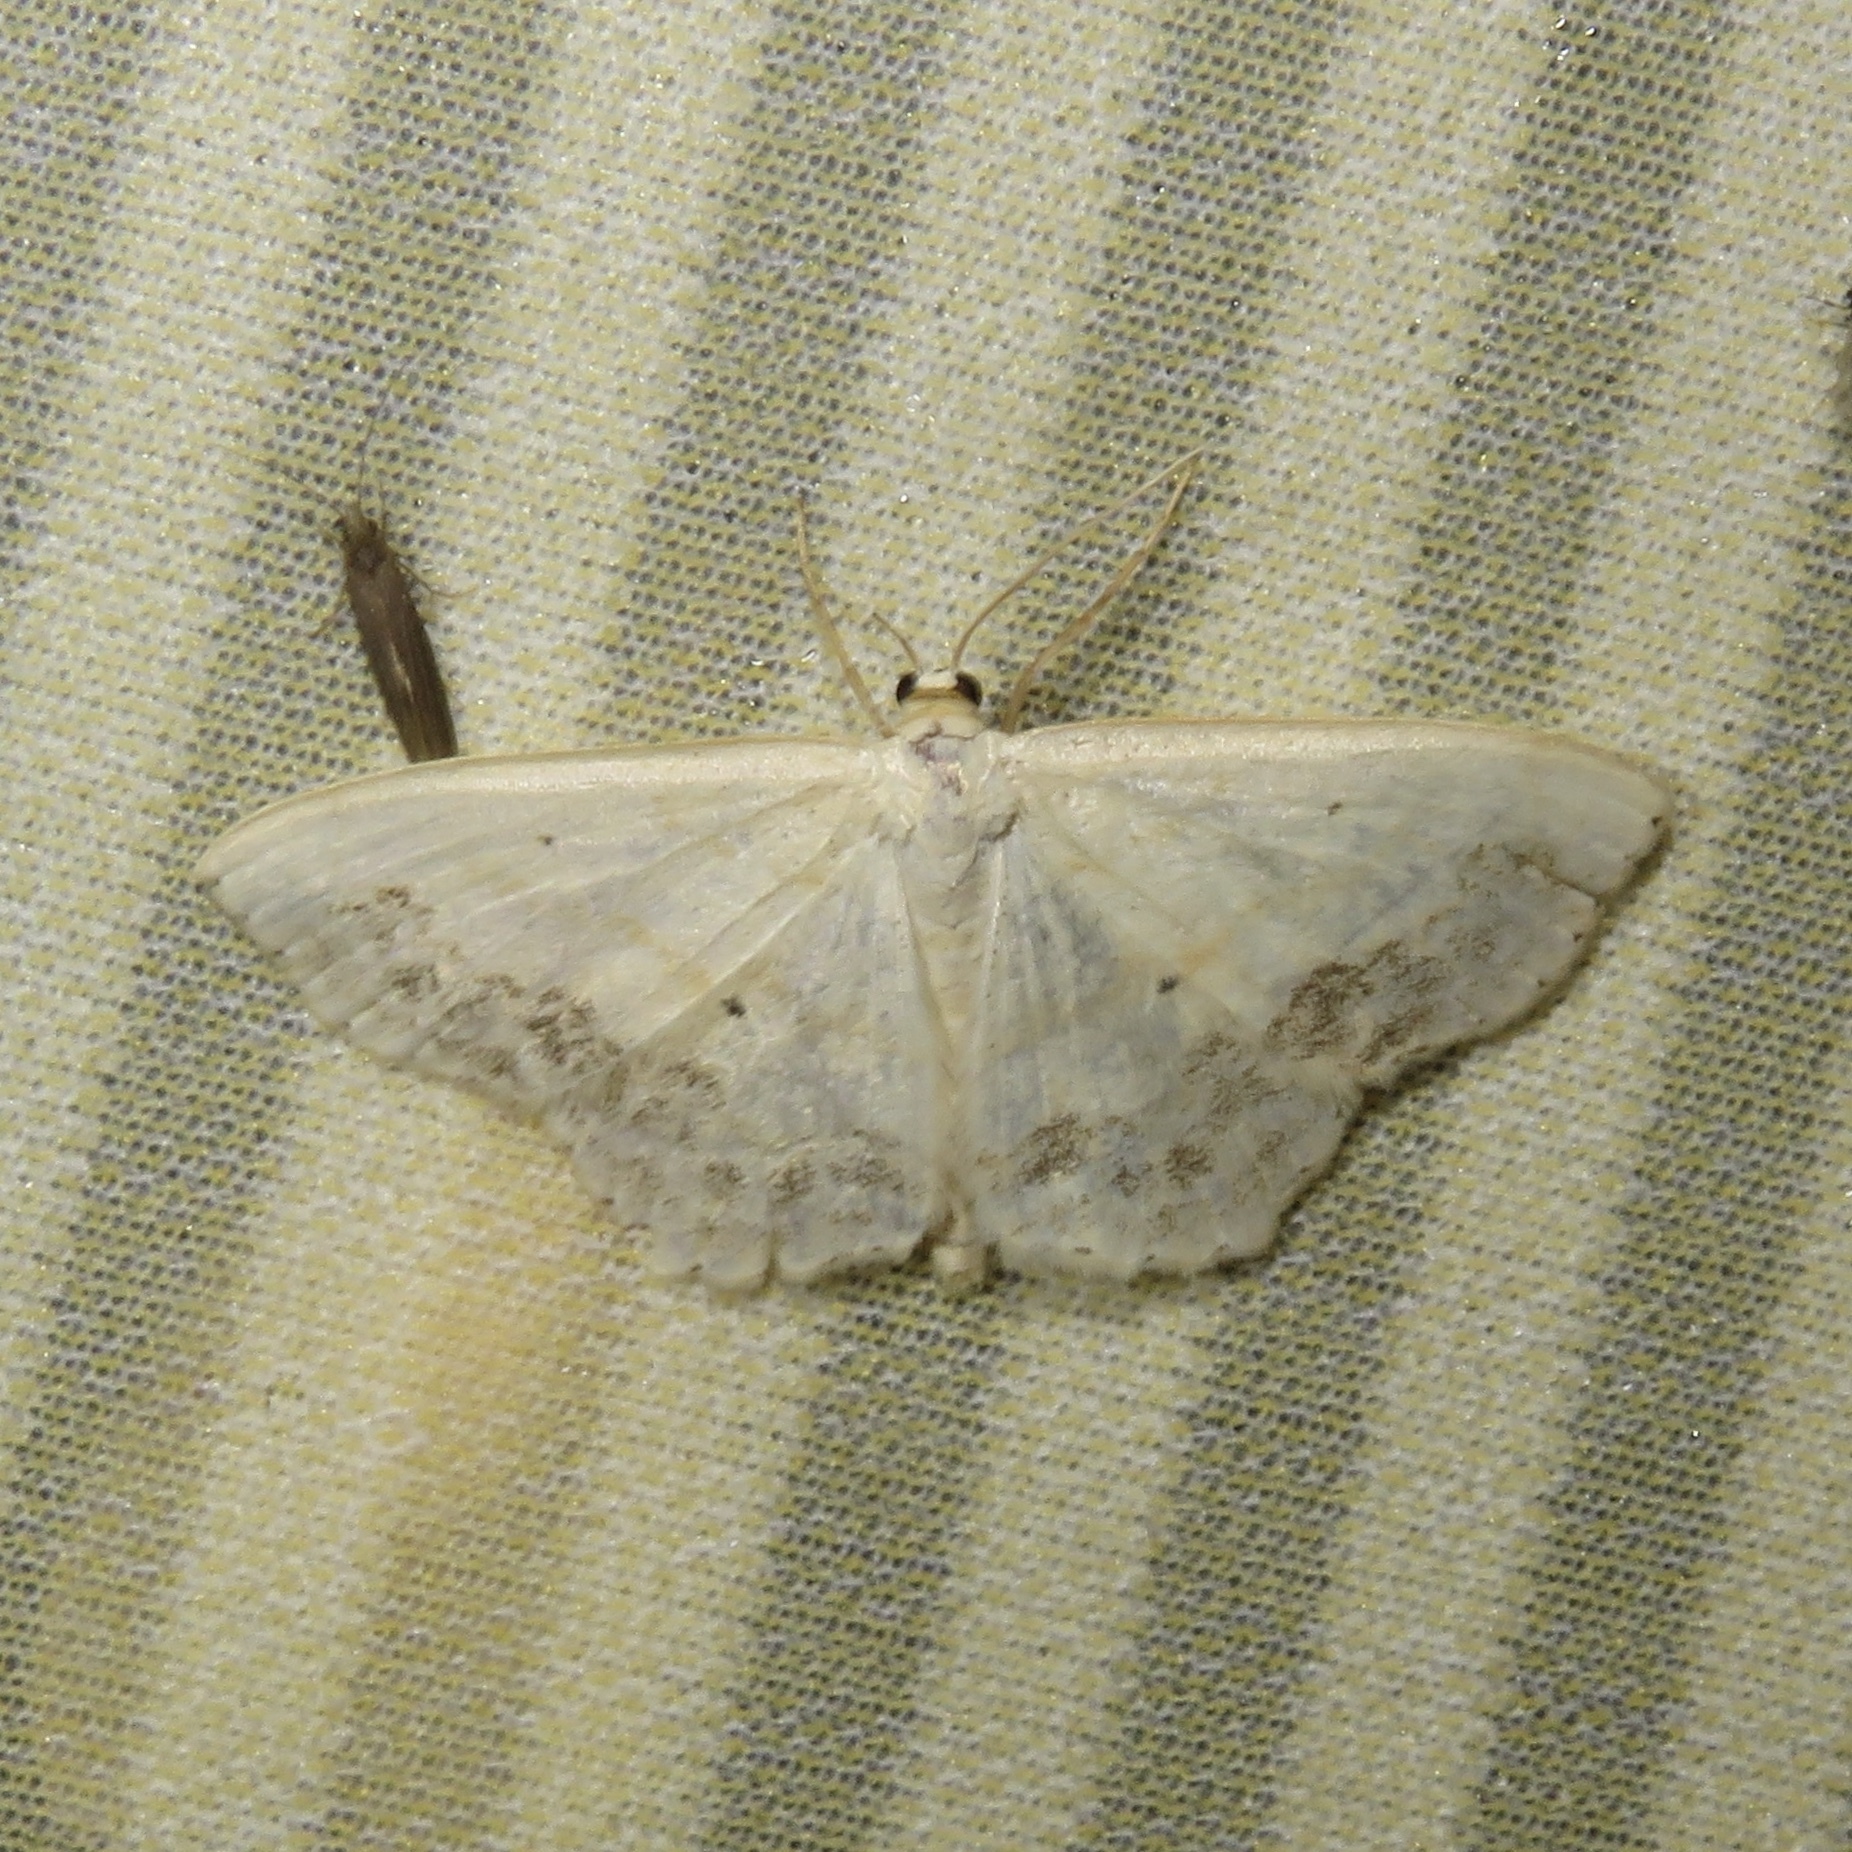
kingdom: Animalia
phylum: Arthropoda
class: Insecta
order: Lepidoptera
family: Geometridae
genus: Scopula
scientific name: Scopula limboundata
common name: Large lace border
